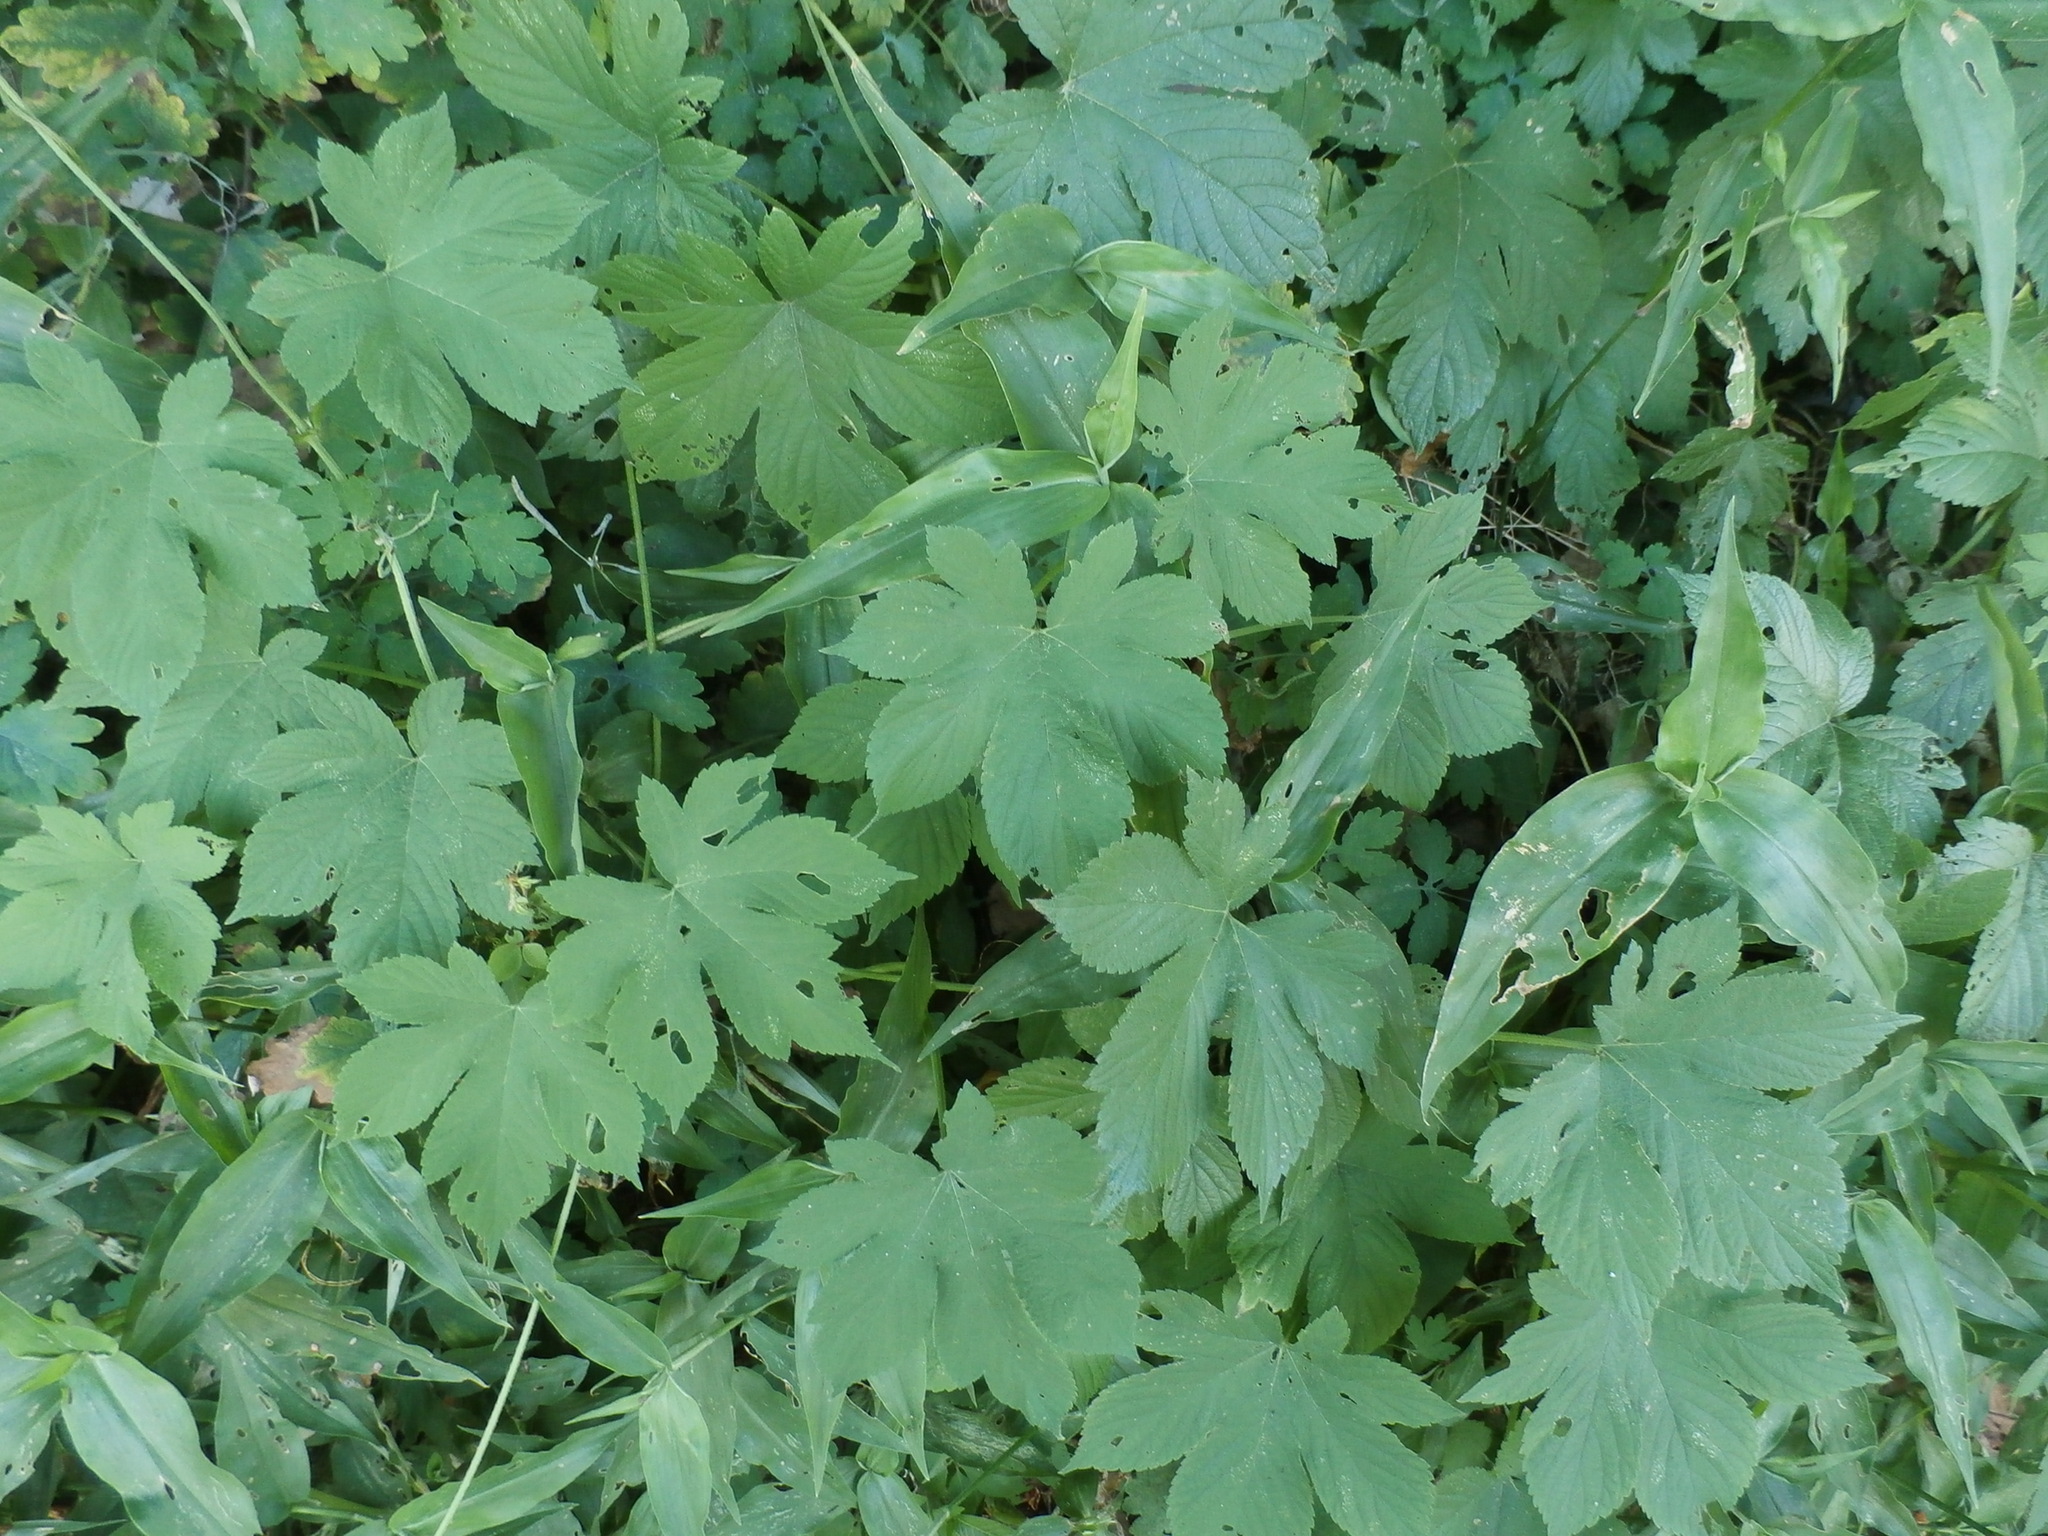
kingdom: Plantae
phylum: Tracheophyta
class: Magnoliopsida
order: Rosales
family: Cannabaceae
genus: Humulus
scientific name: Humulus scandens
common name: Japanese hop
